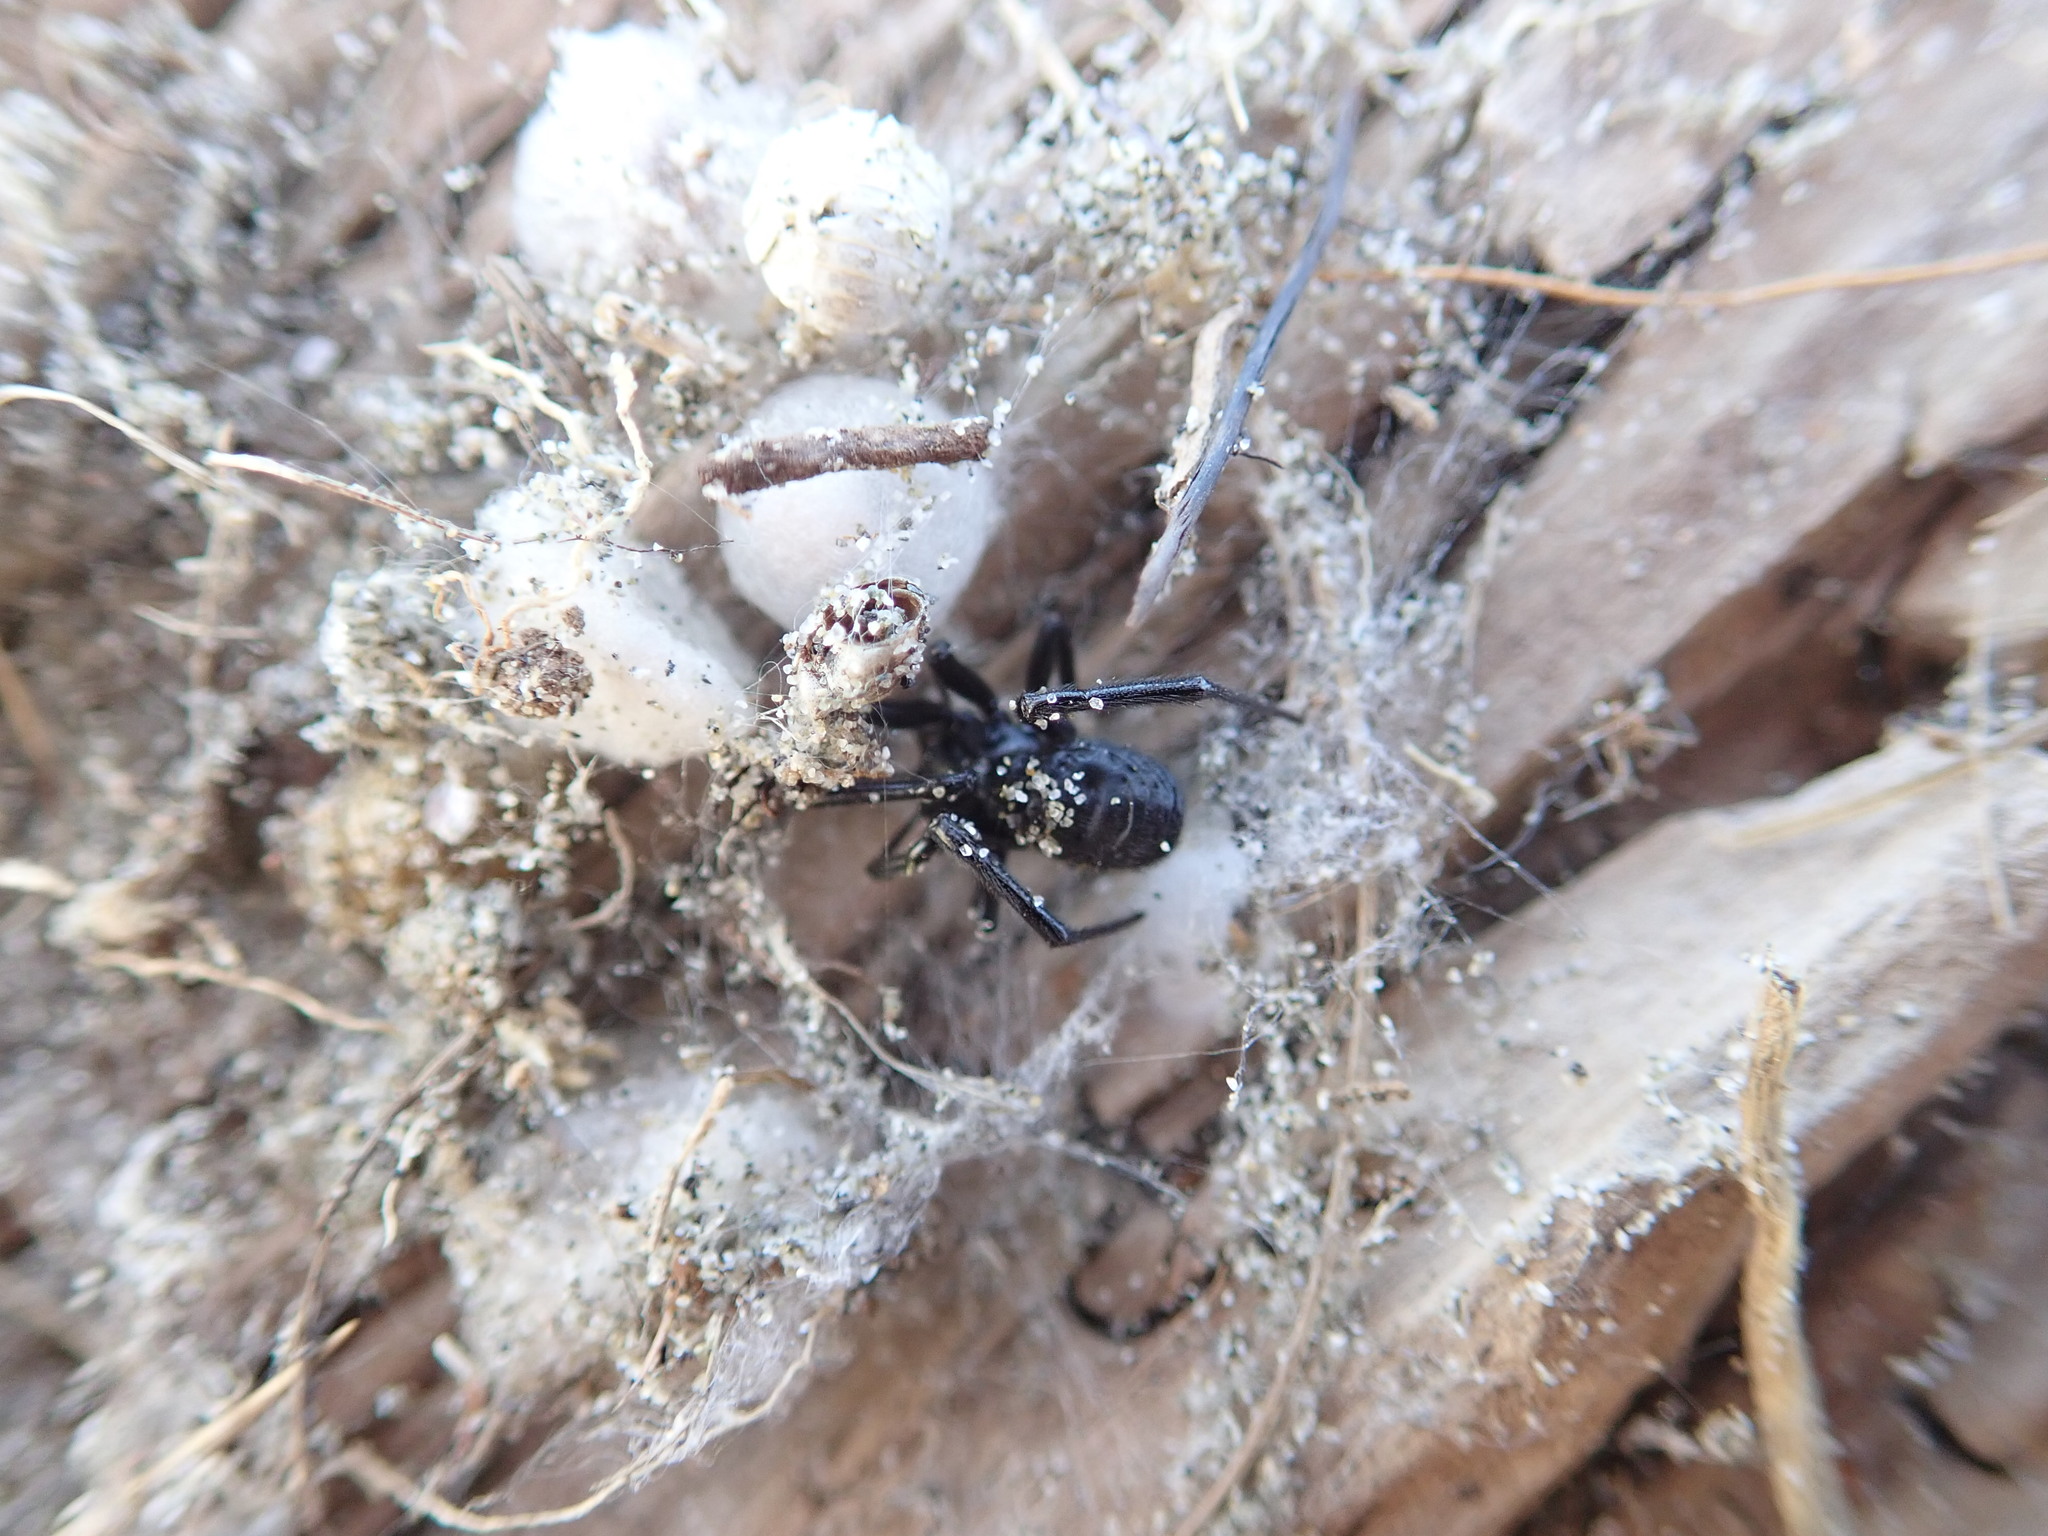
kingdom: Animalia
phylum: Arthropoda
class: Arachnida
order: Araneae
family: Theridiidae
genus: Steatoda
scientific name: Steatoda capensis
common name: Cobweb weaver
